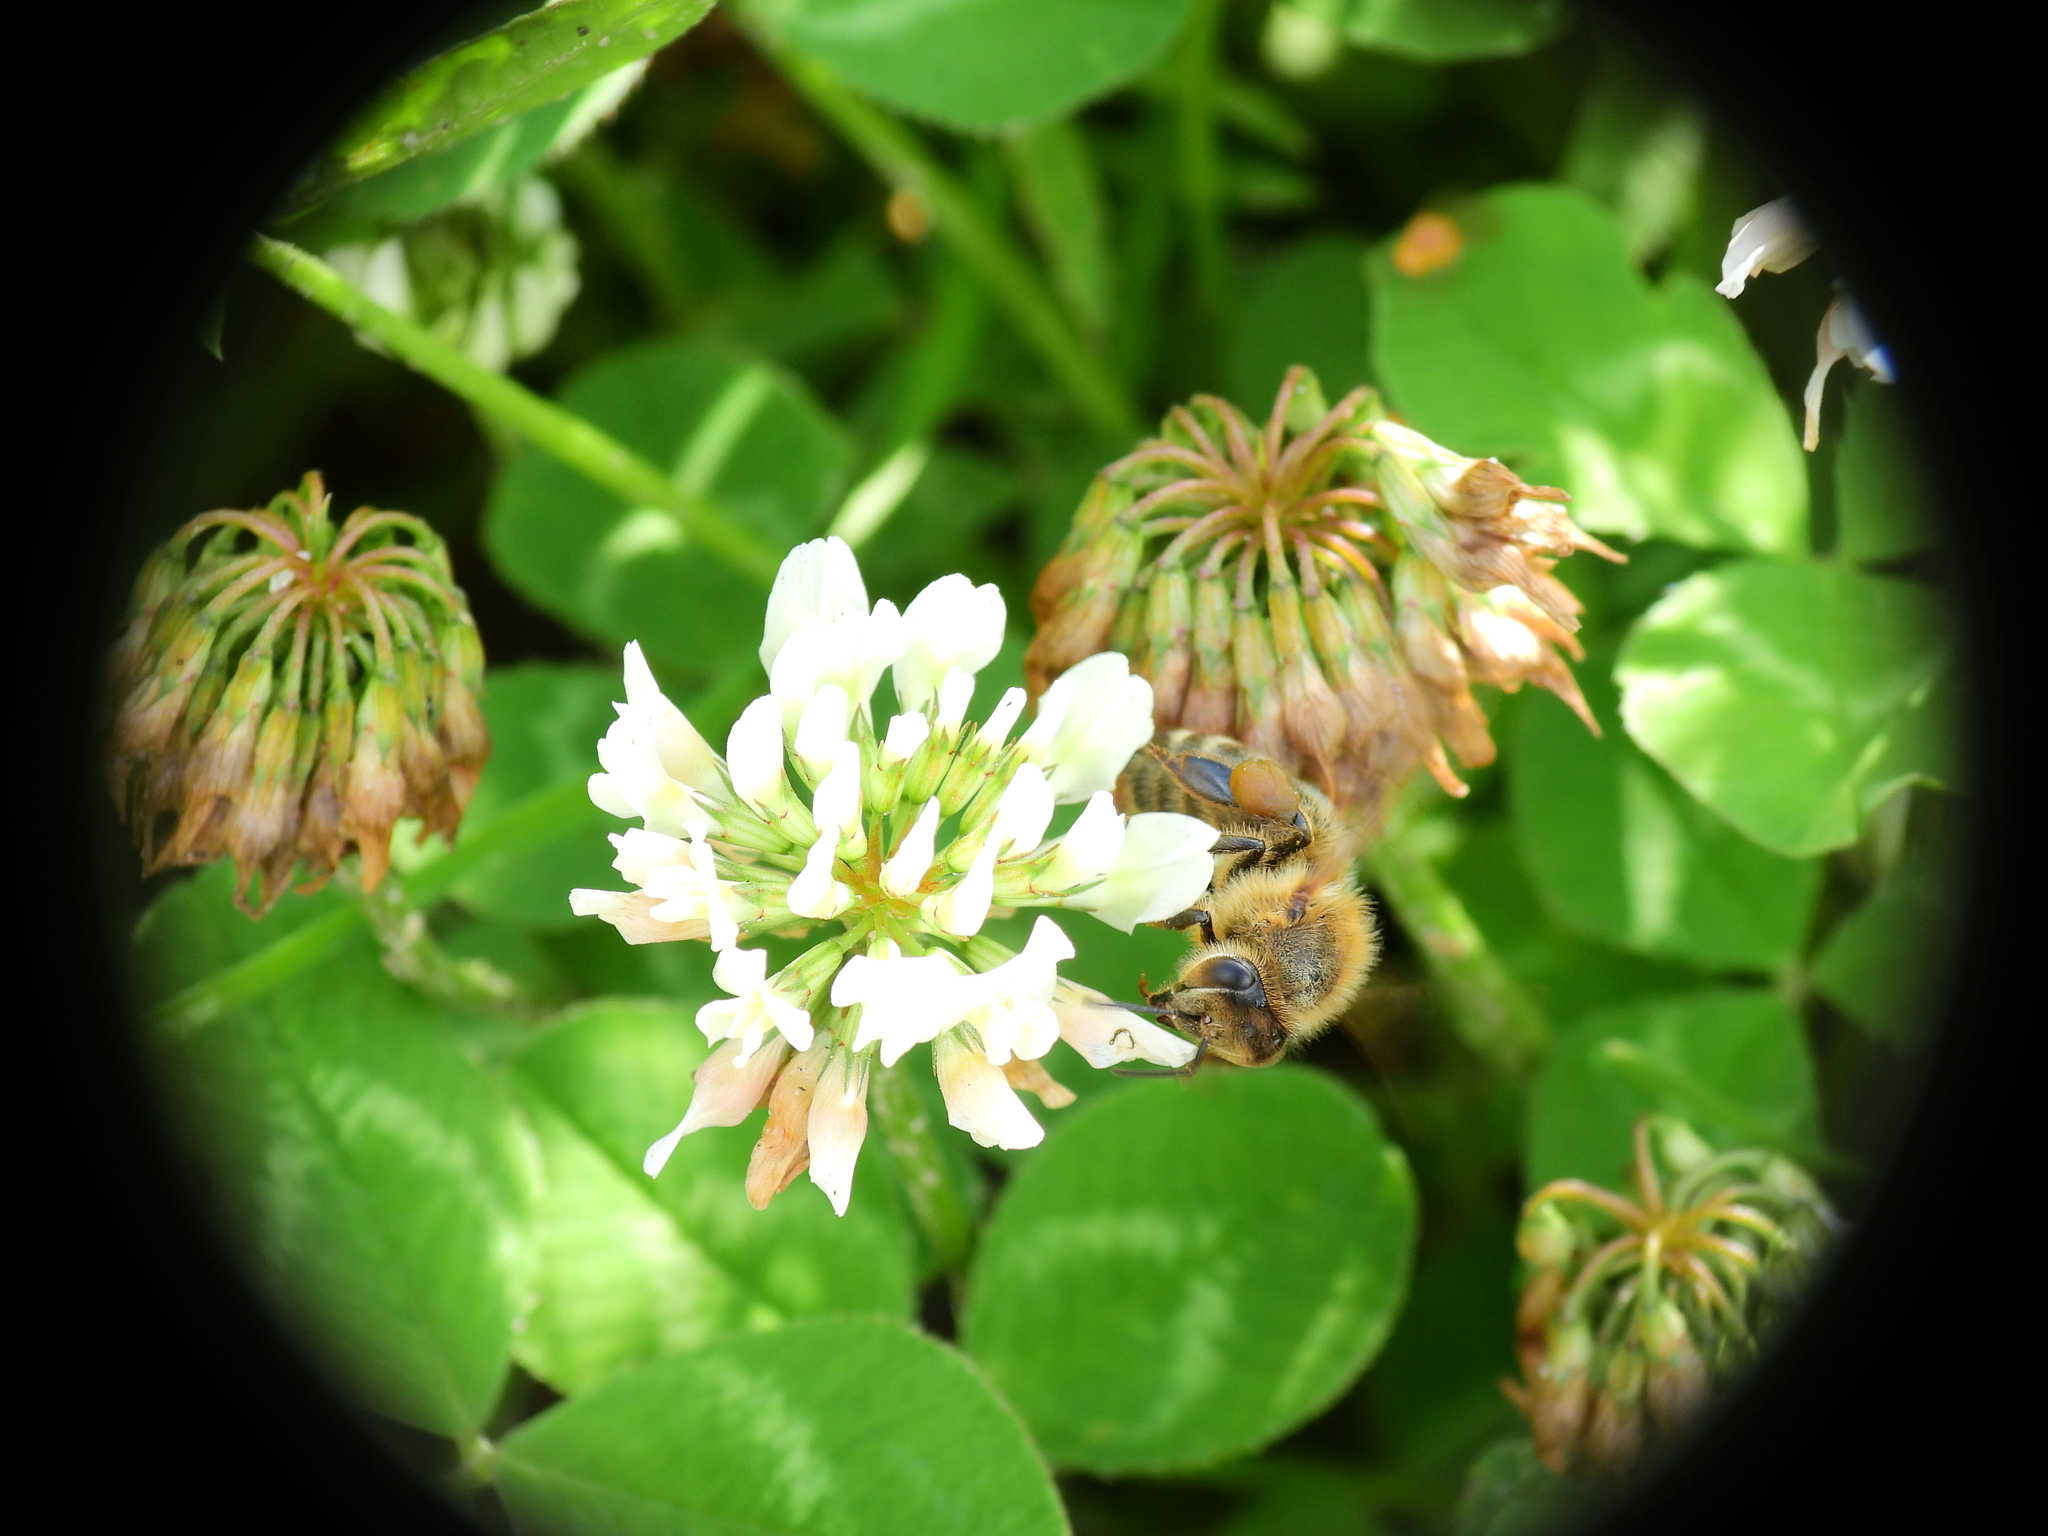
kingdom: Animalia
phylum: Arthropoda
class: Insecta
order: Hymenoptera
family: Apidae
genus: Apis
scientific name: Apis mellifera
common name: Honey bee
